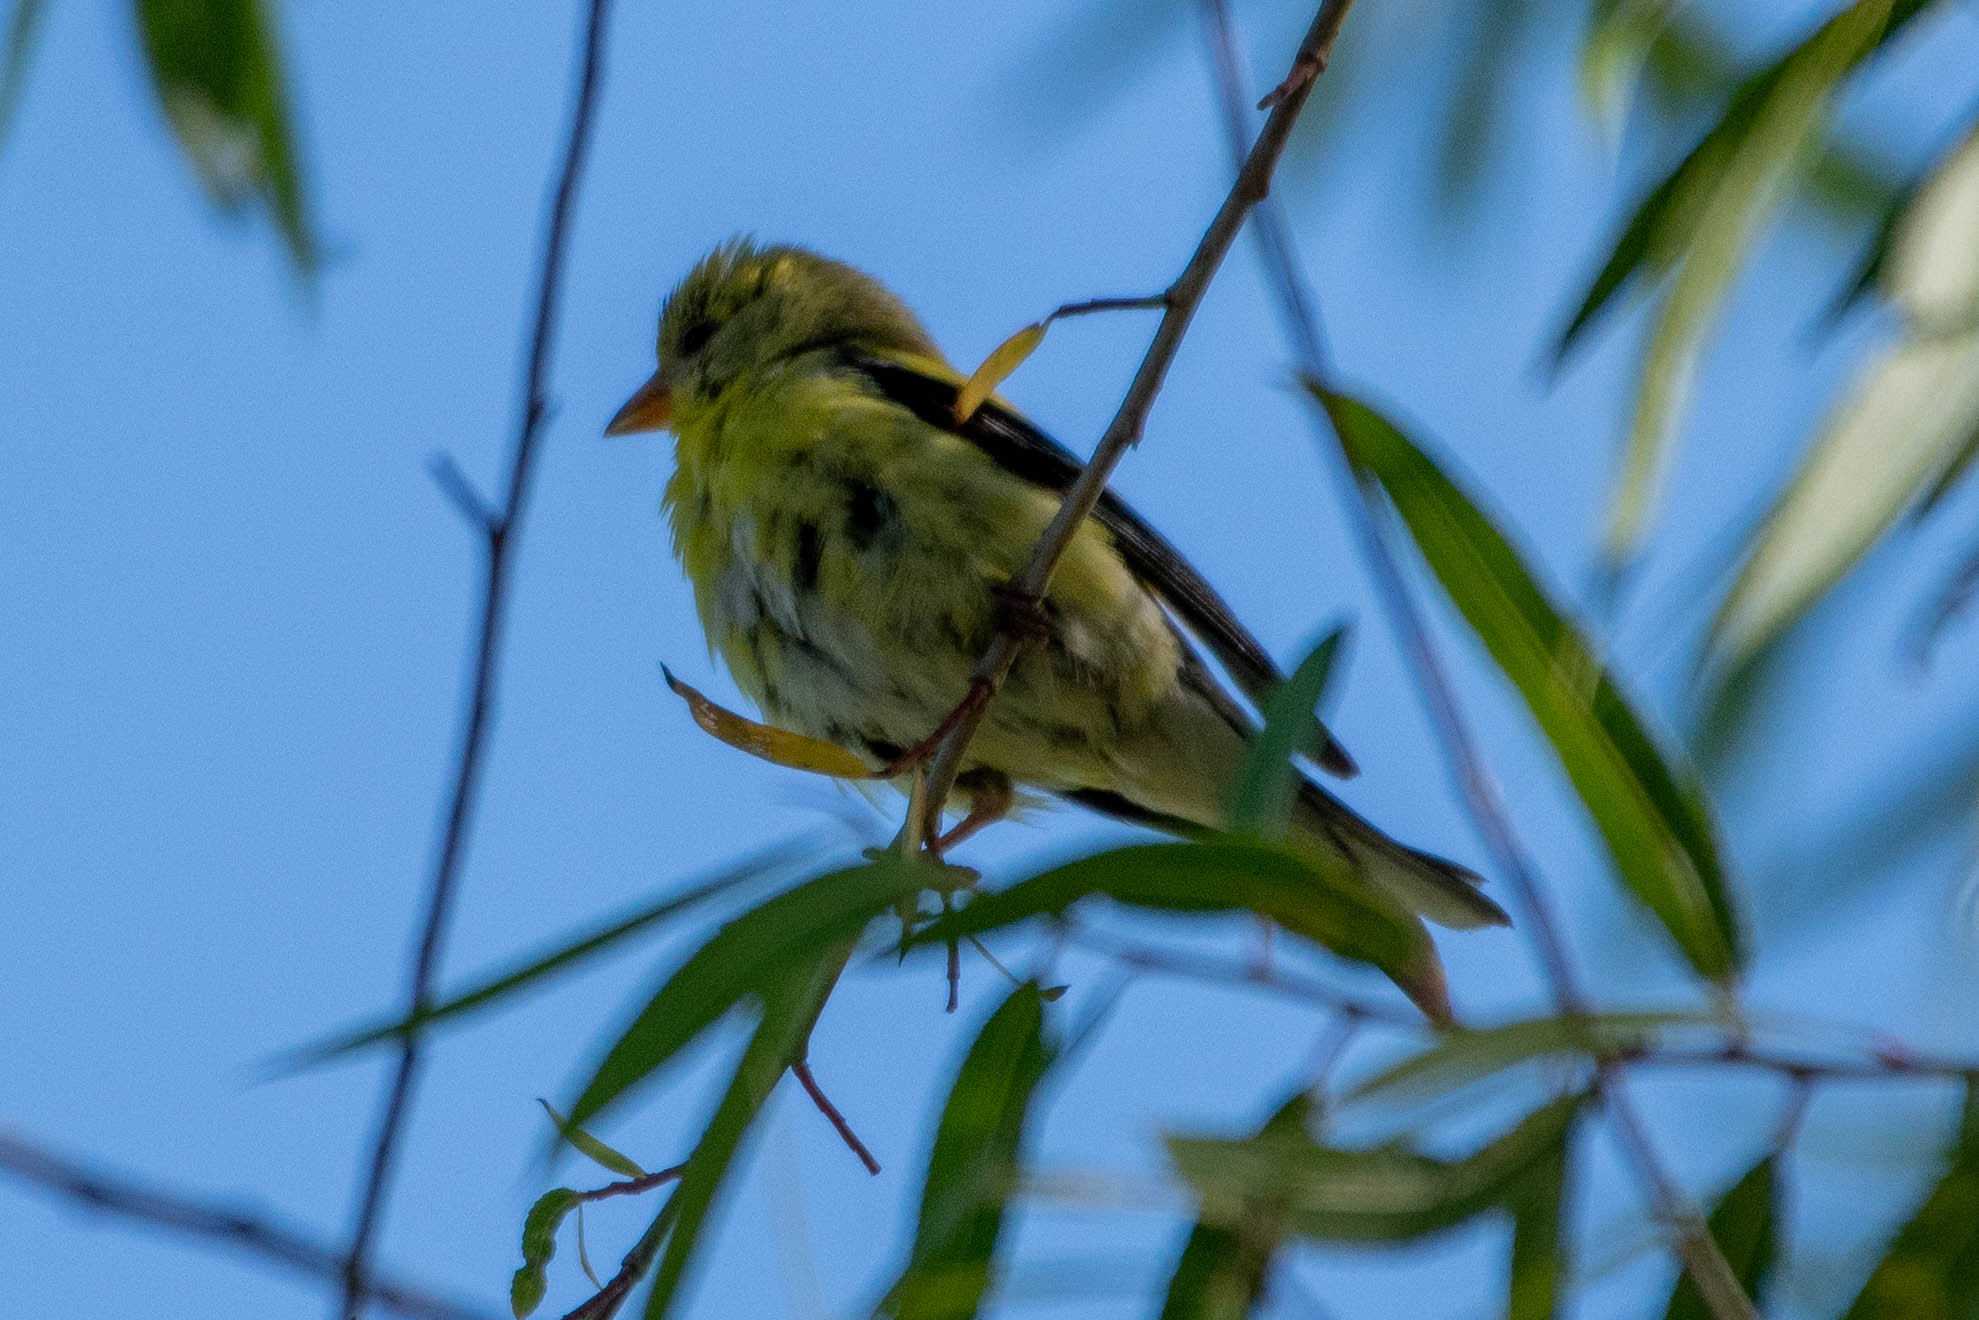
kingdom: Animalia
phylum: Chordata
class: Aves
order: Passeriformes
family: Fringillidae
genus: Spinus
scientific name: Spinus tristis
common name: American goldfinch
